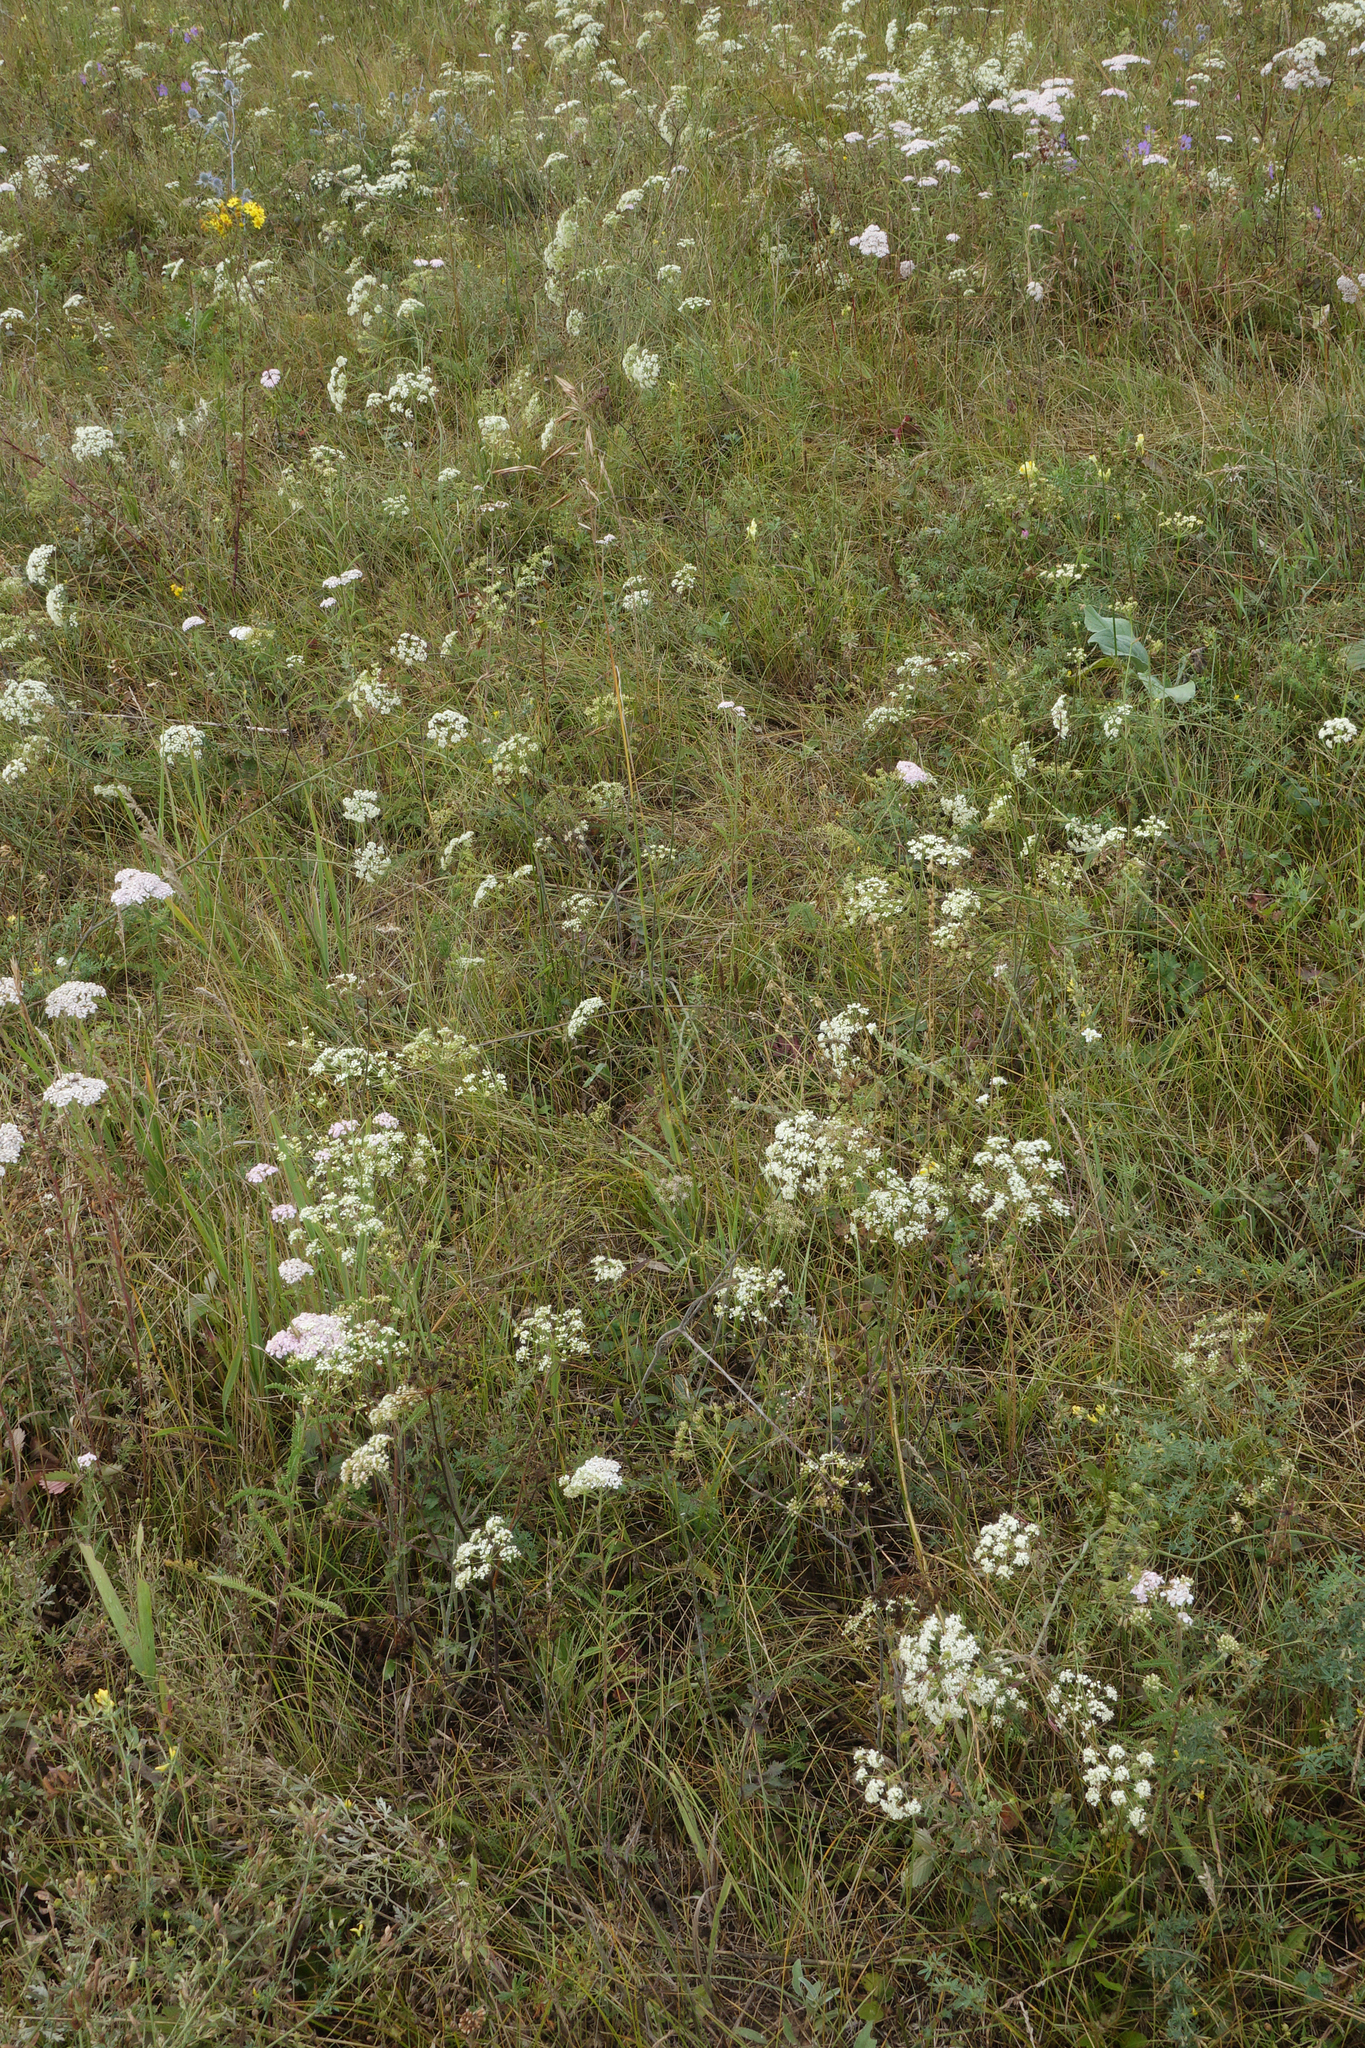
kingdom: Plantae
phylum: Tracheophyta
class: Magnoliopsida
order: Apiales
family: Apiaceae
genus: Pimpinella
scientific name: Pimpinella saxifraga
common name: Burnet-saxifrage
